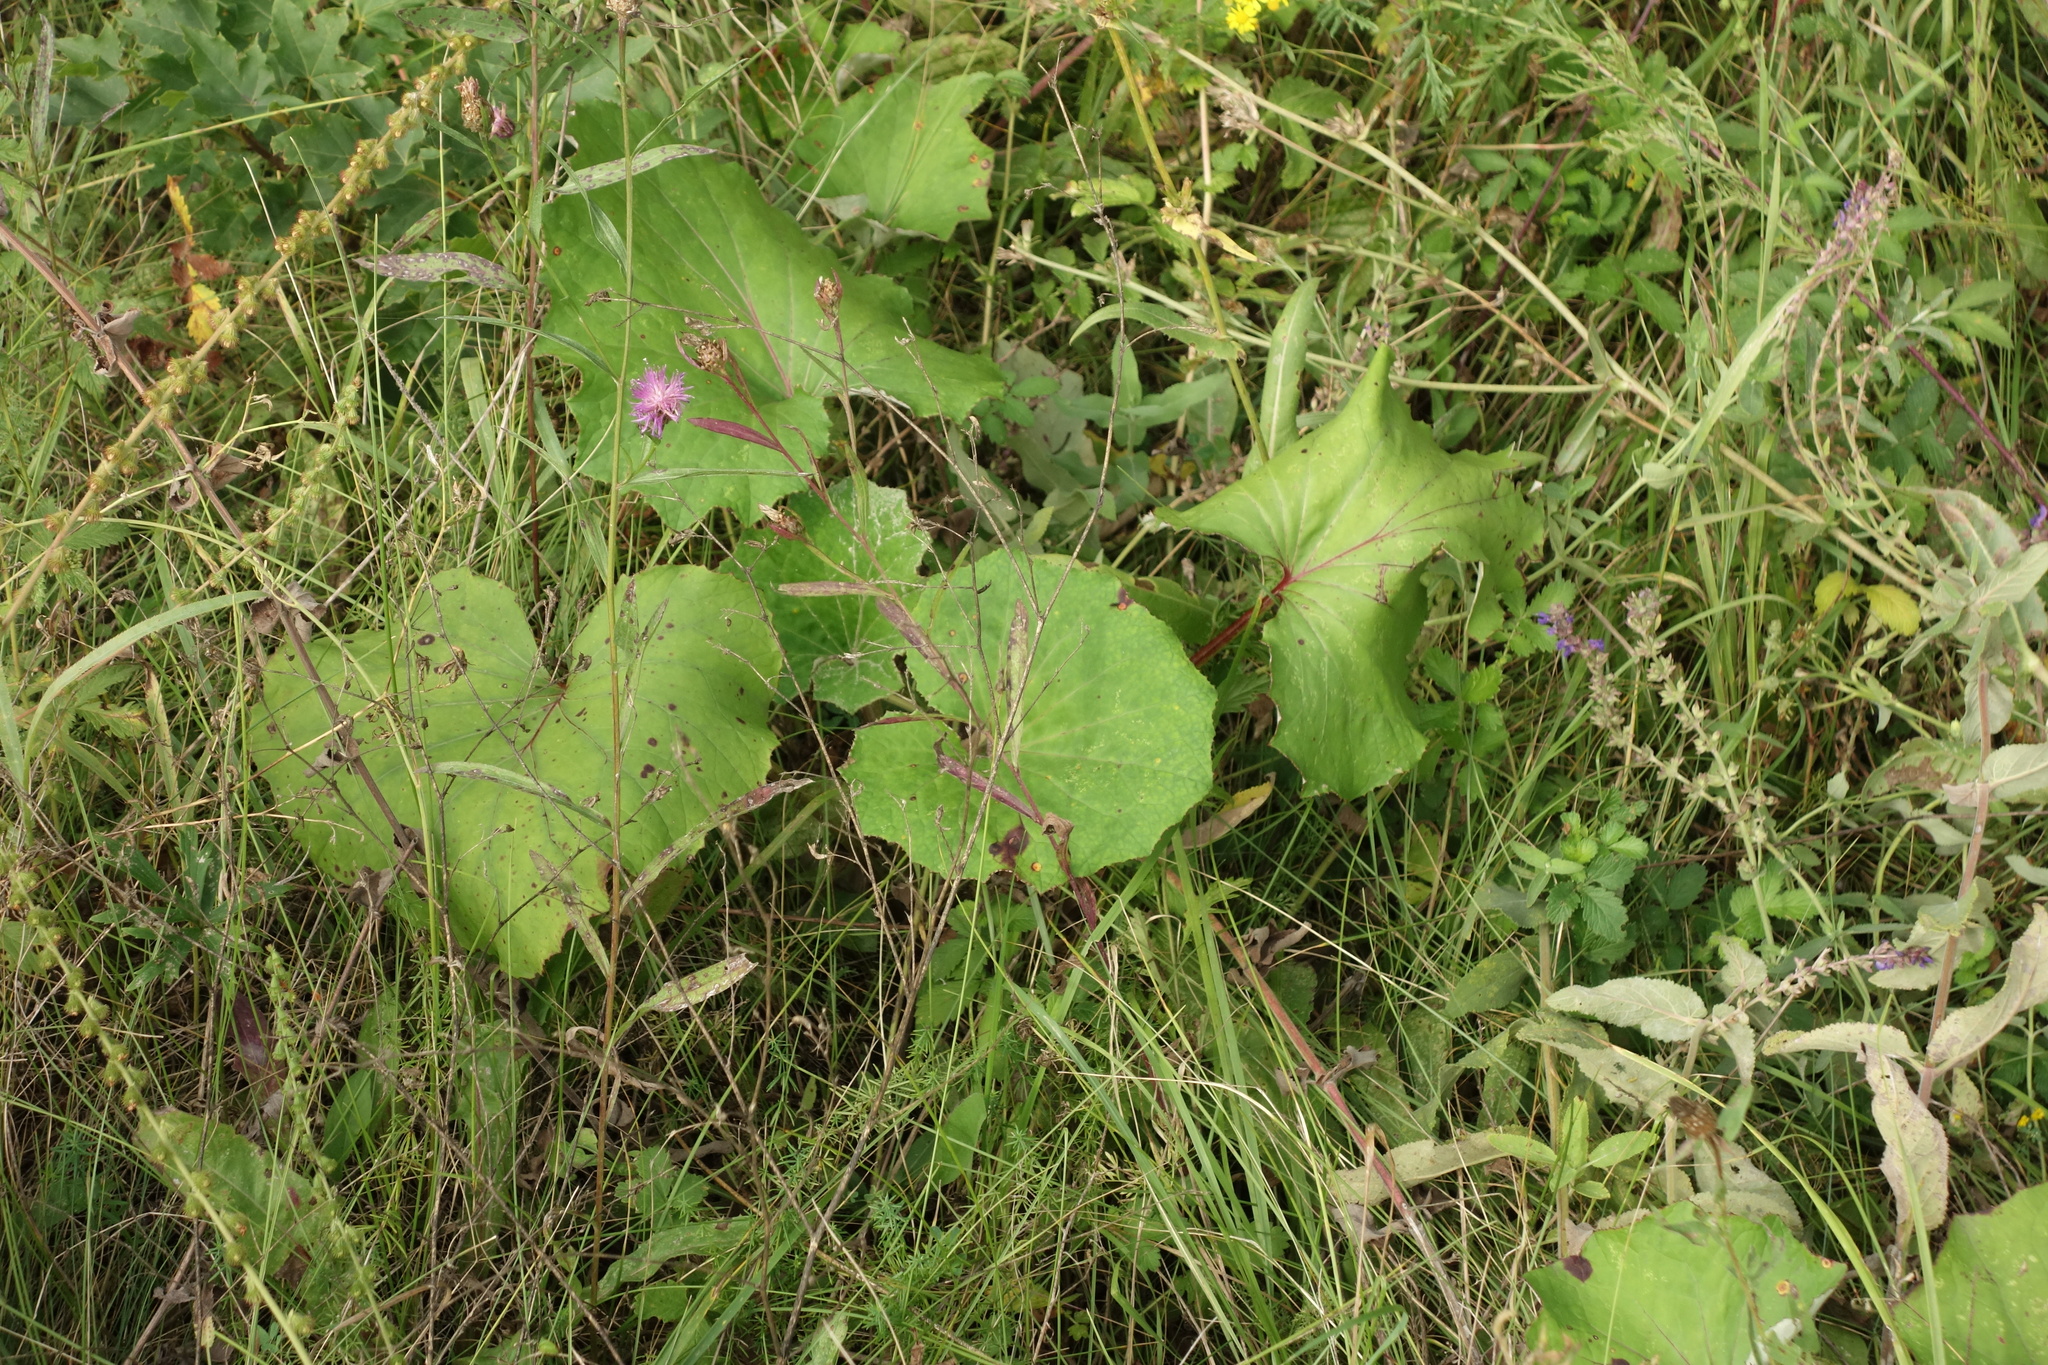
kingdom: Plantae
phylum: Tracheophyta
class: Magnoliopsida
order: Asterales
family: Asteraceae
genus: Tussilago
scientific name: Tussilago farfara
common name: Coltsfoot
